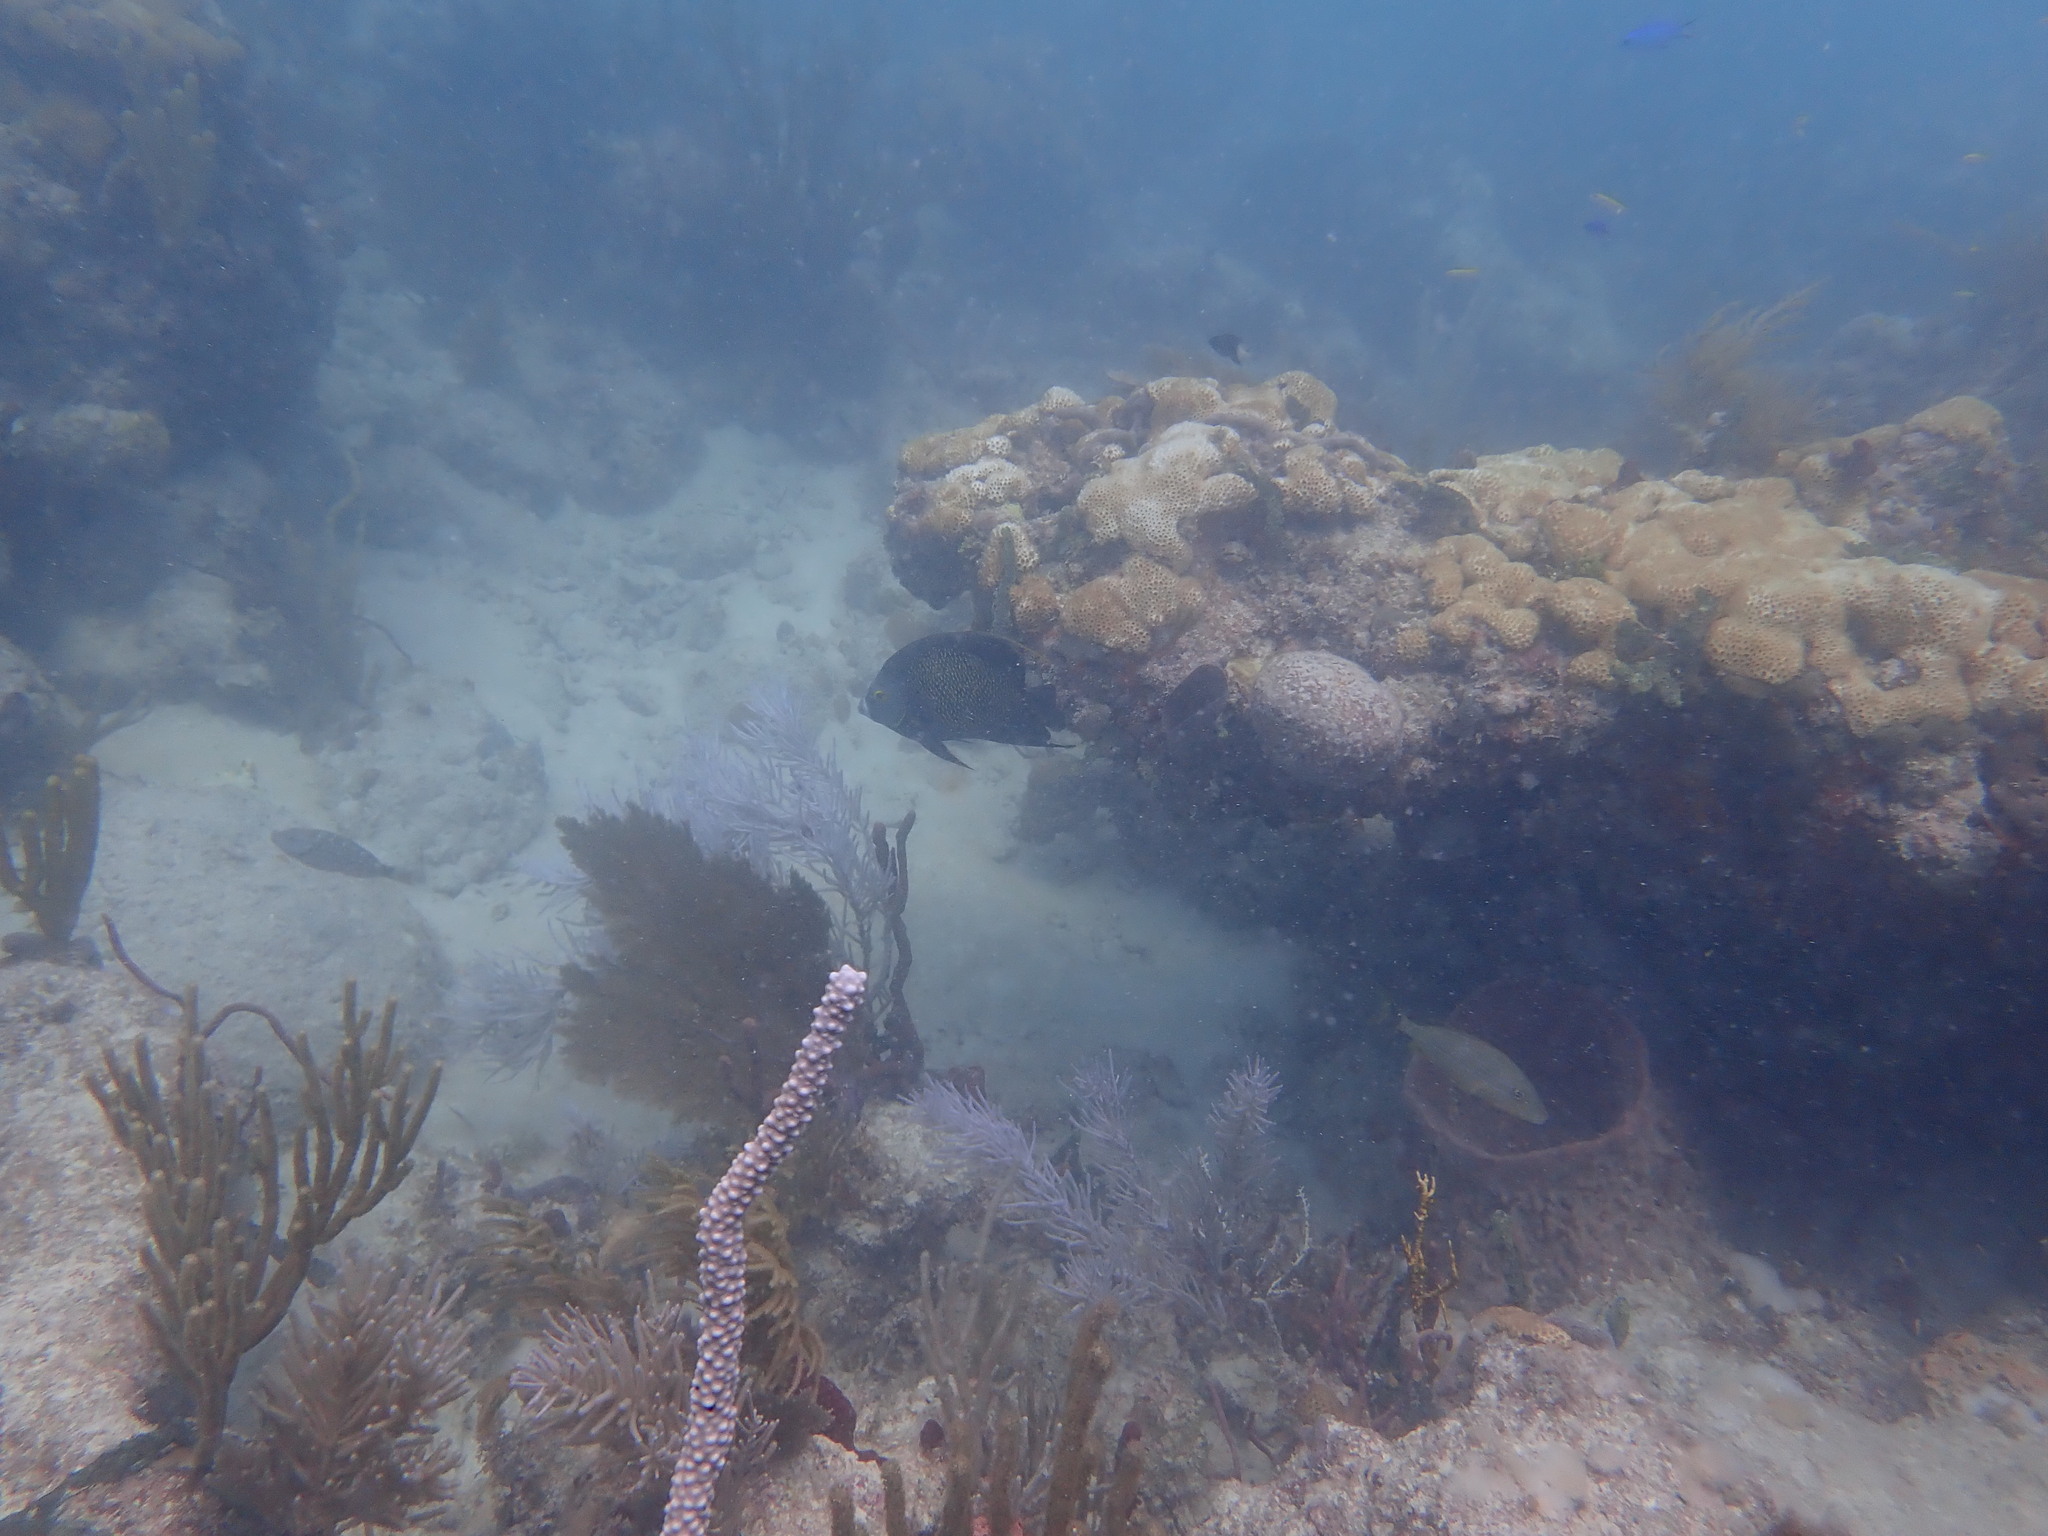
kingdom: Animalia
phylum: Chordata
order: Perciformes
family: Pomacanthidae
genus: Pomacanthus
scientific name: Pomacanthus paru
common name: French angelfish
